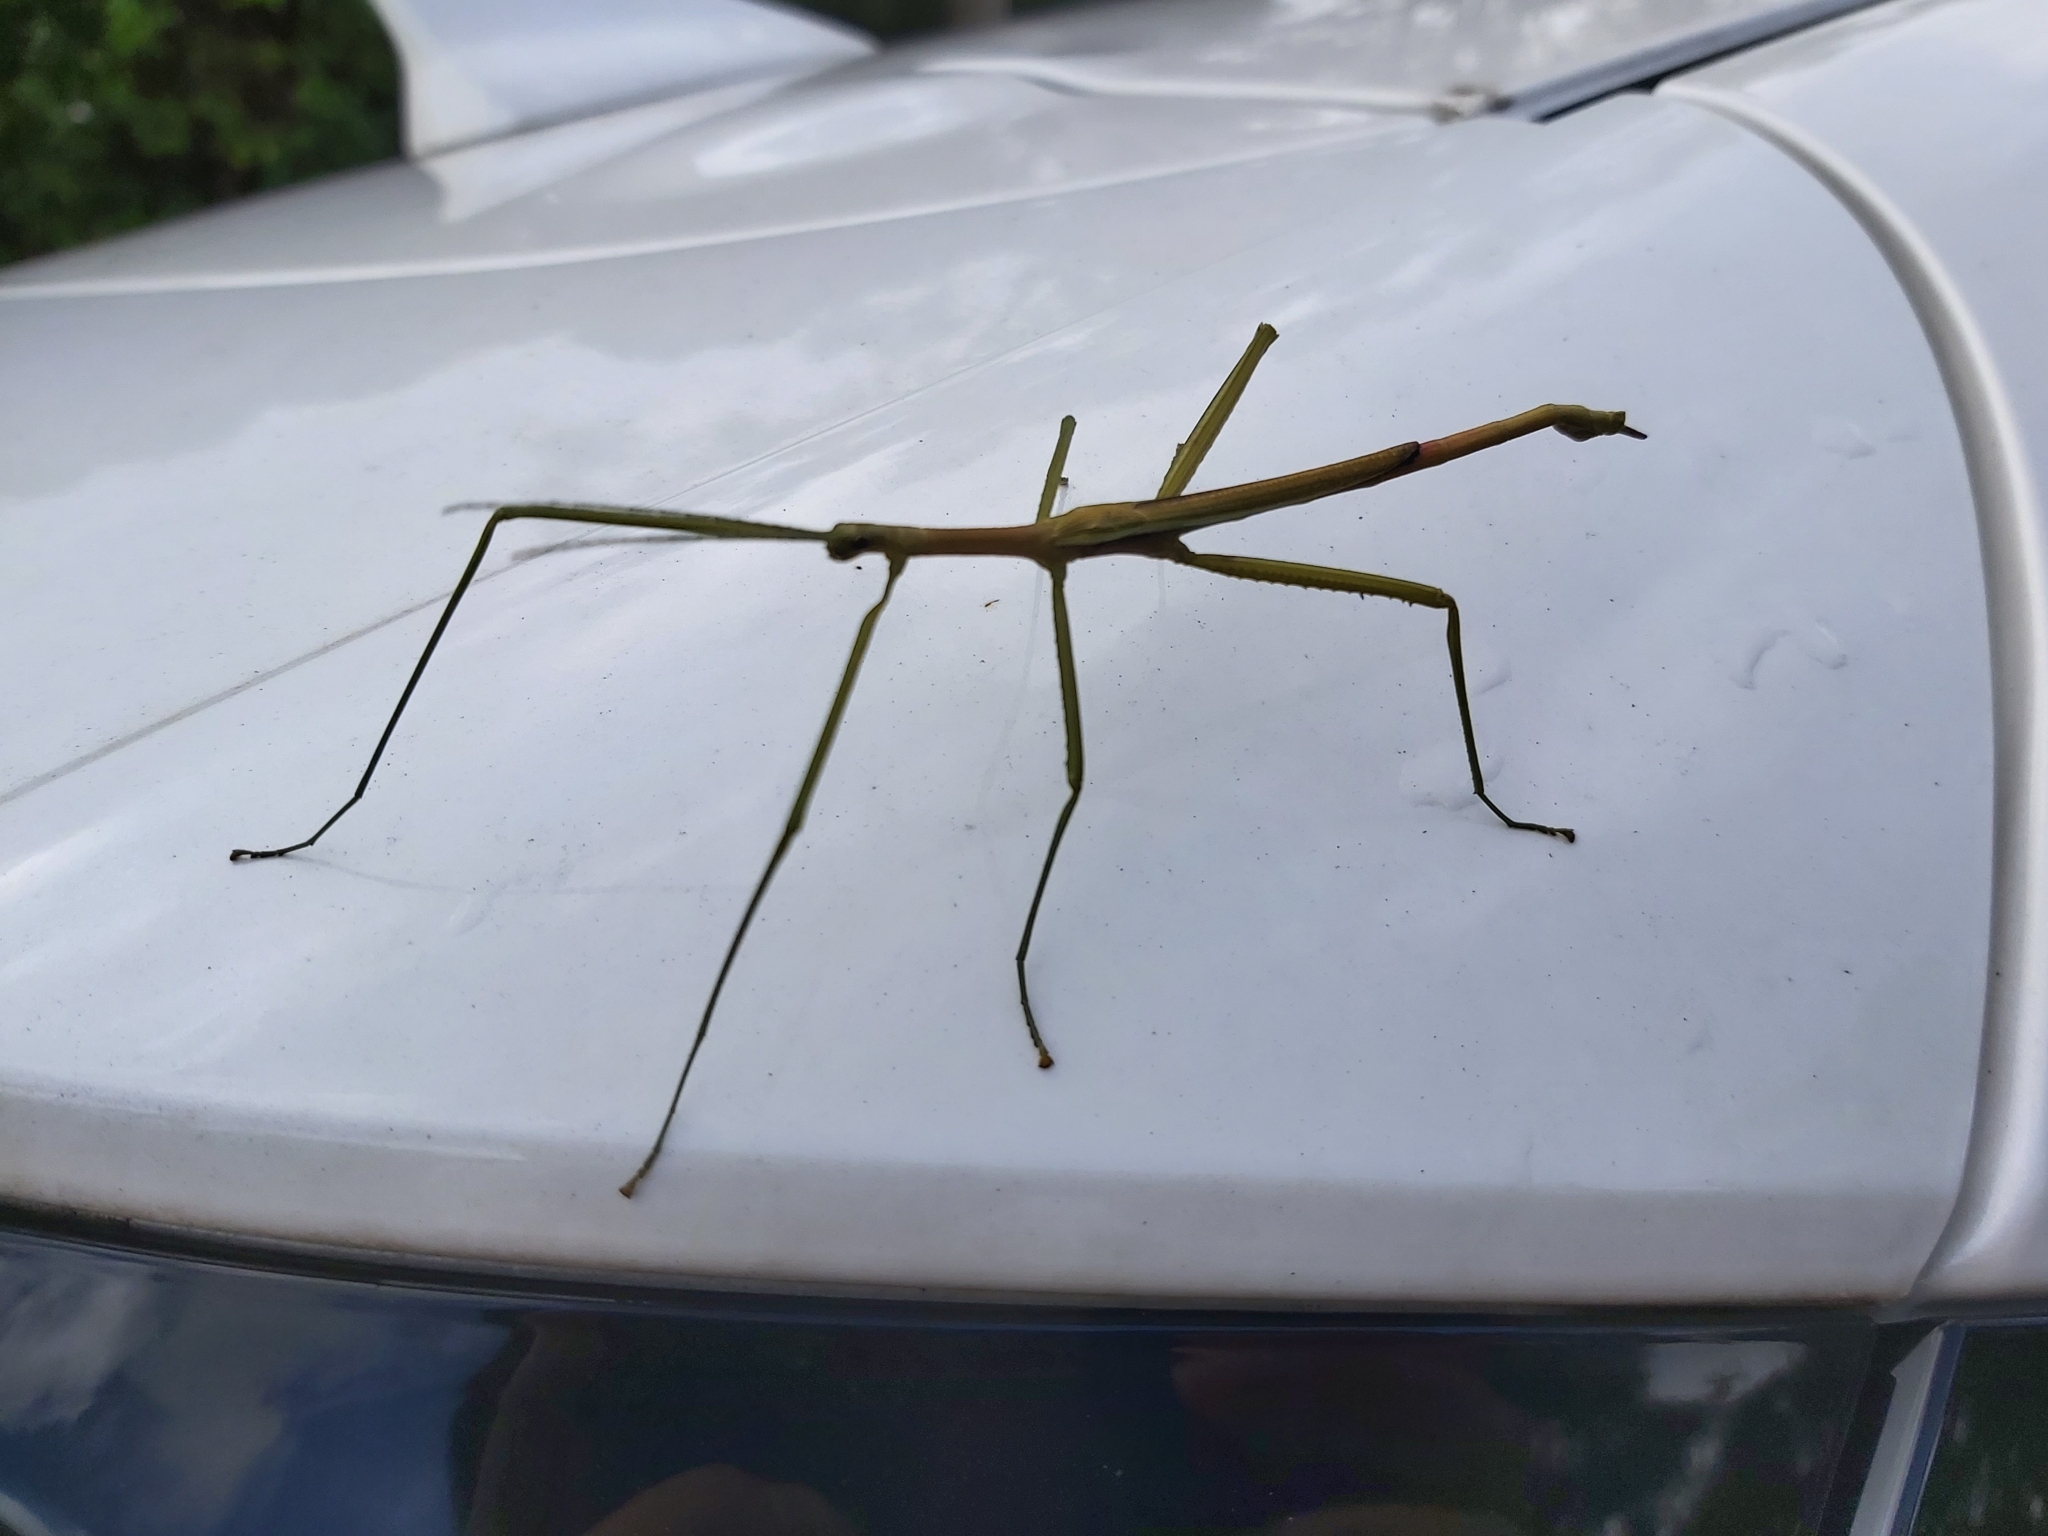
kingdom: Animalia
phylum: Arthropoda
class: Insecta
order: Phasmida
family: Phasmatidae
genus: Didymuria
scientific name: Didymuria violescens
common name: Spur-legged stick-insect
